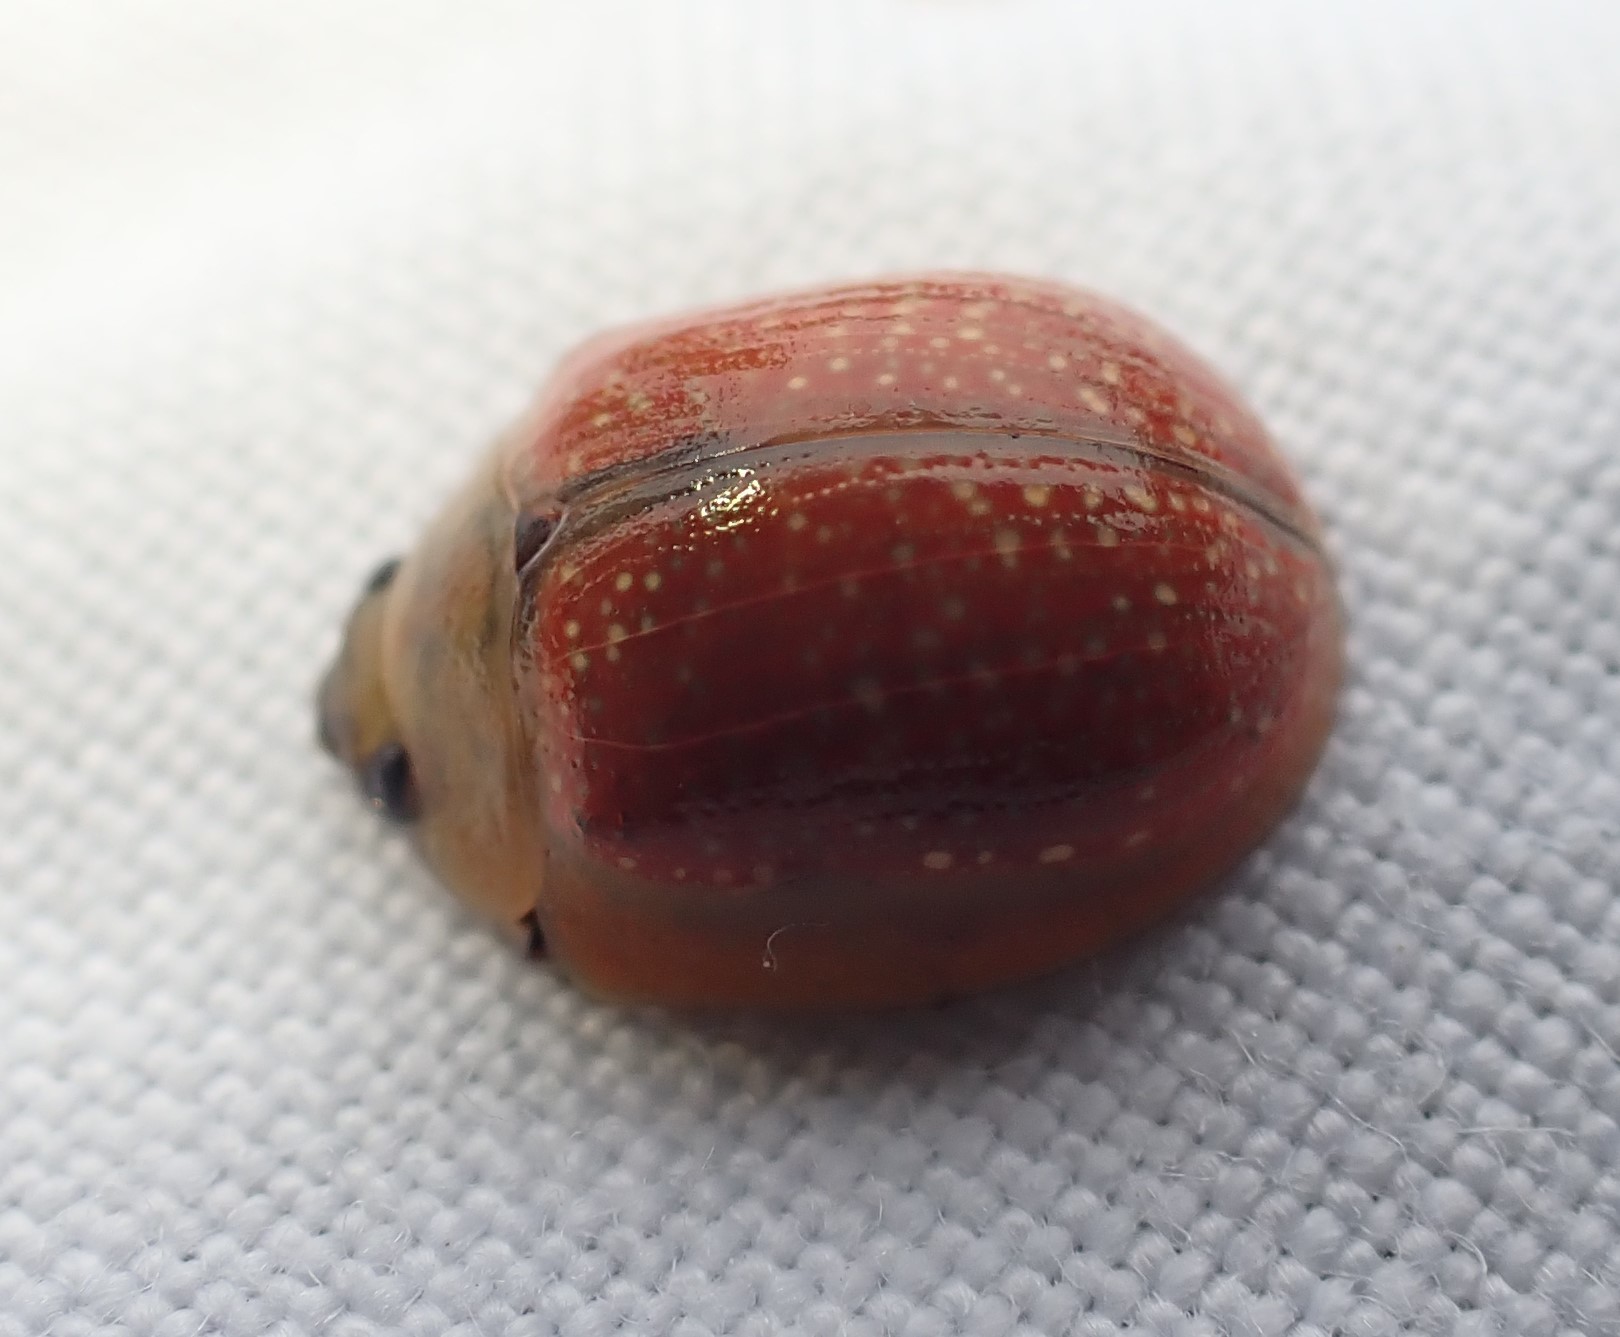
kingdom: Animalia
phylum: Arthropoda
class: Insecta
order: Coleoptera
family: Chrysomelidae
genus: Paropsisterna
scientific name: Paropsisterna cloelia
